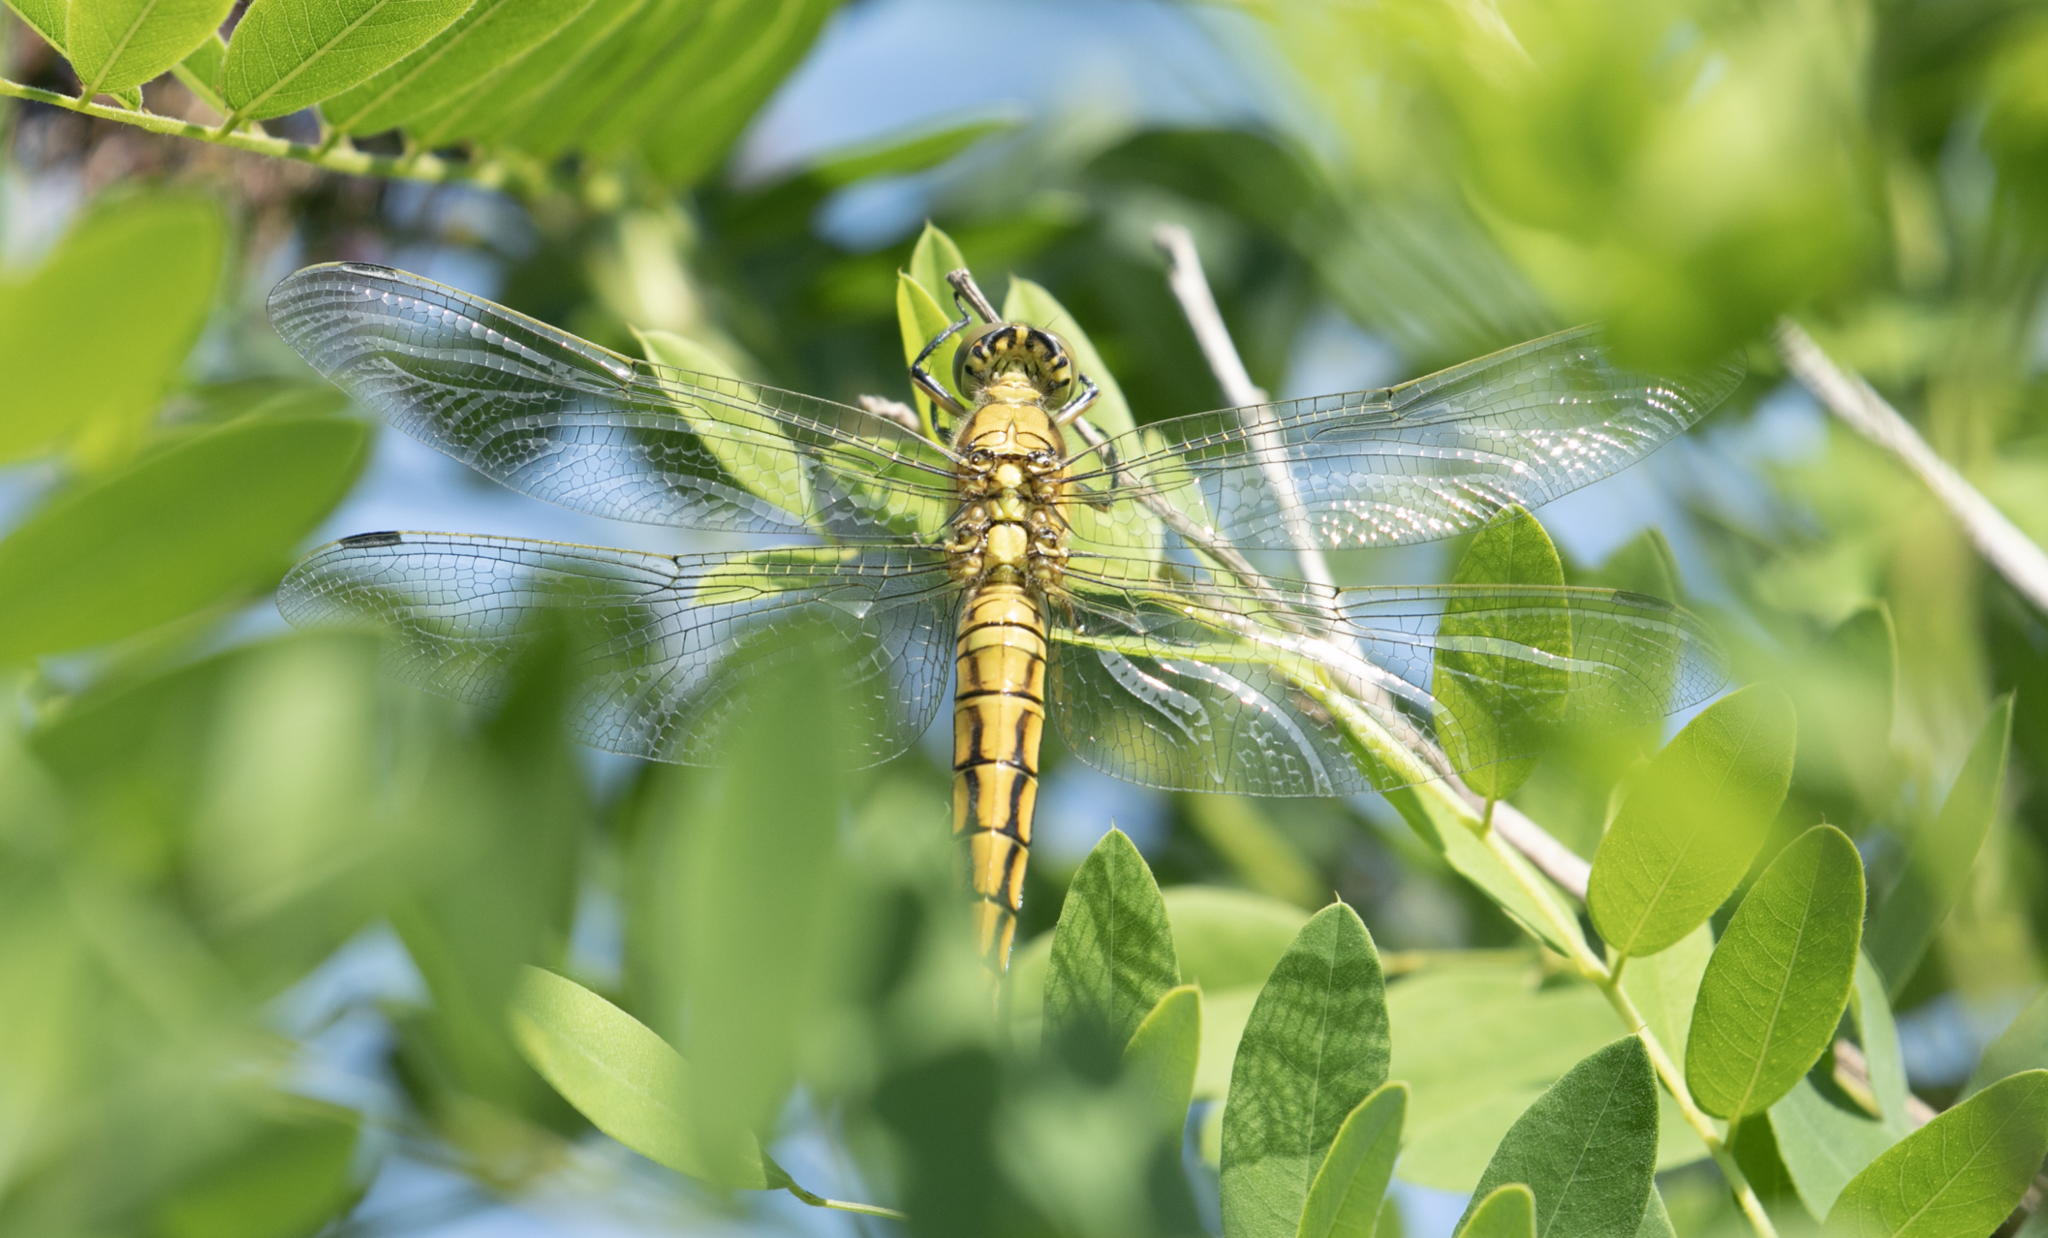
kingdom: Animalia
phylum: Arthropoda
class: Insecta
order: Odonata
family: Libellulidae
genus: Orthetrum
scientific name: Orthetrum cancellatum
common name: Black-tailed skimmer
